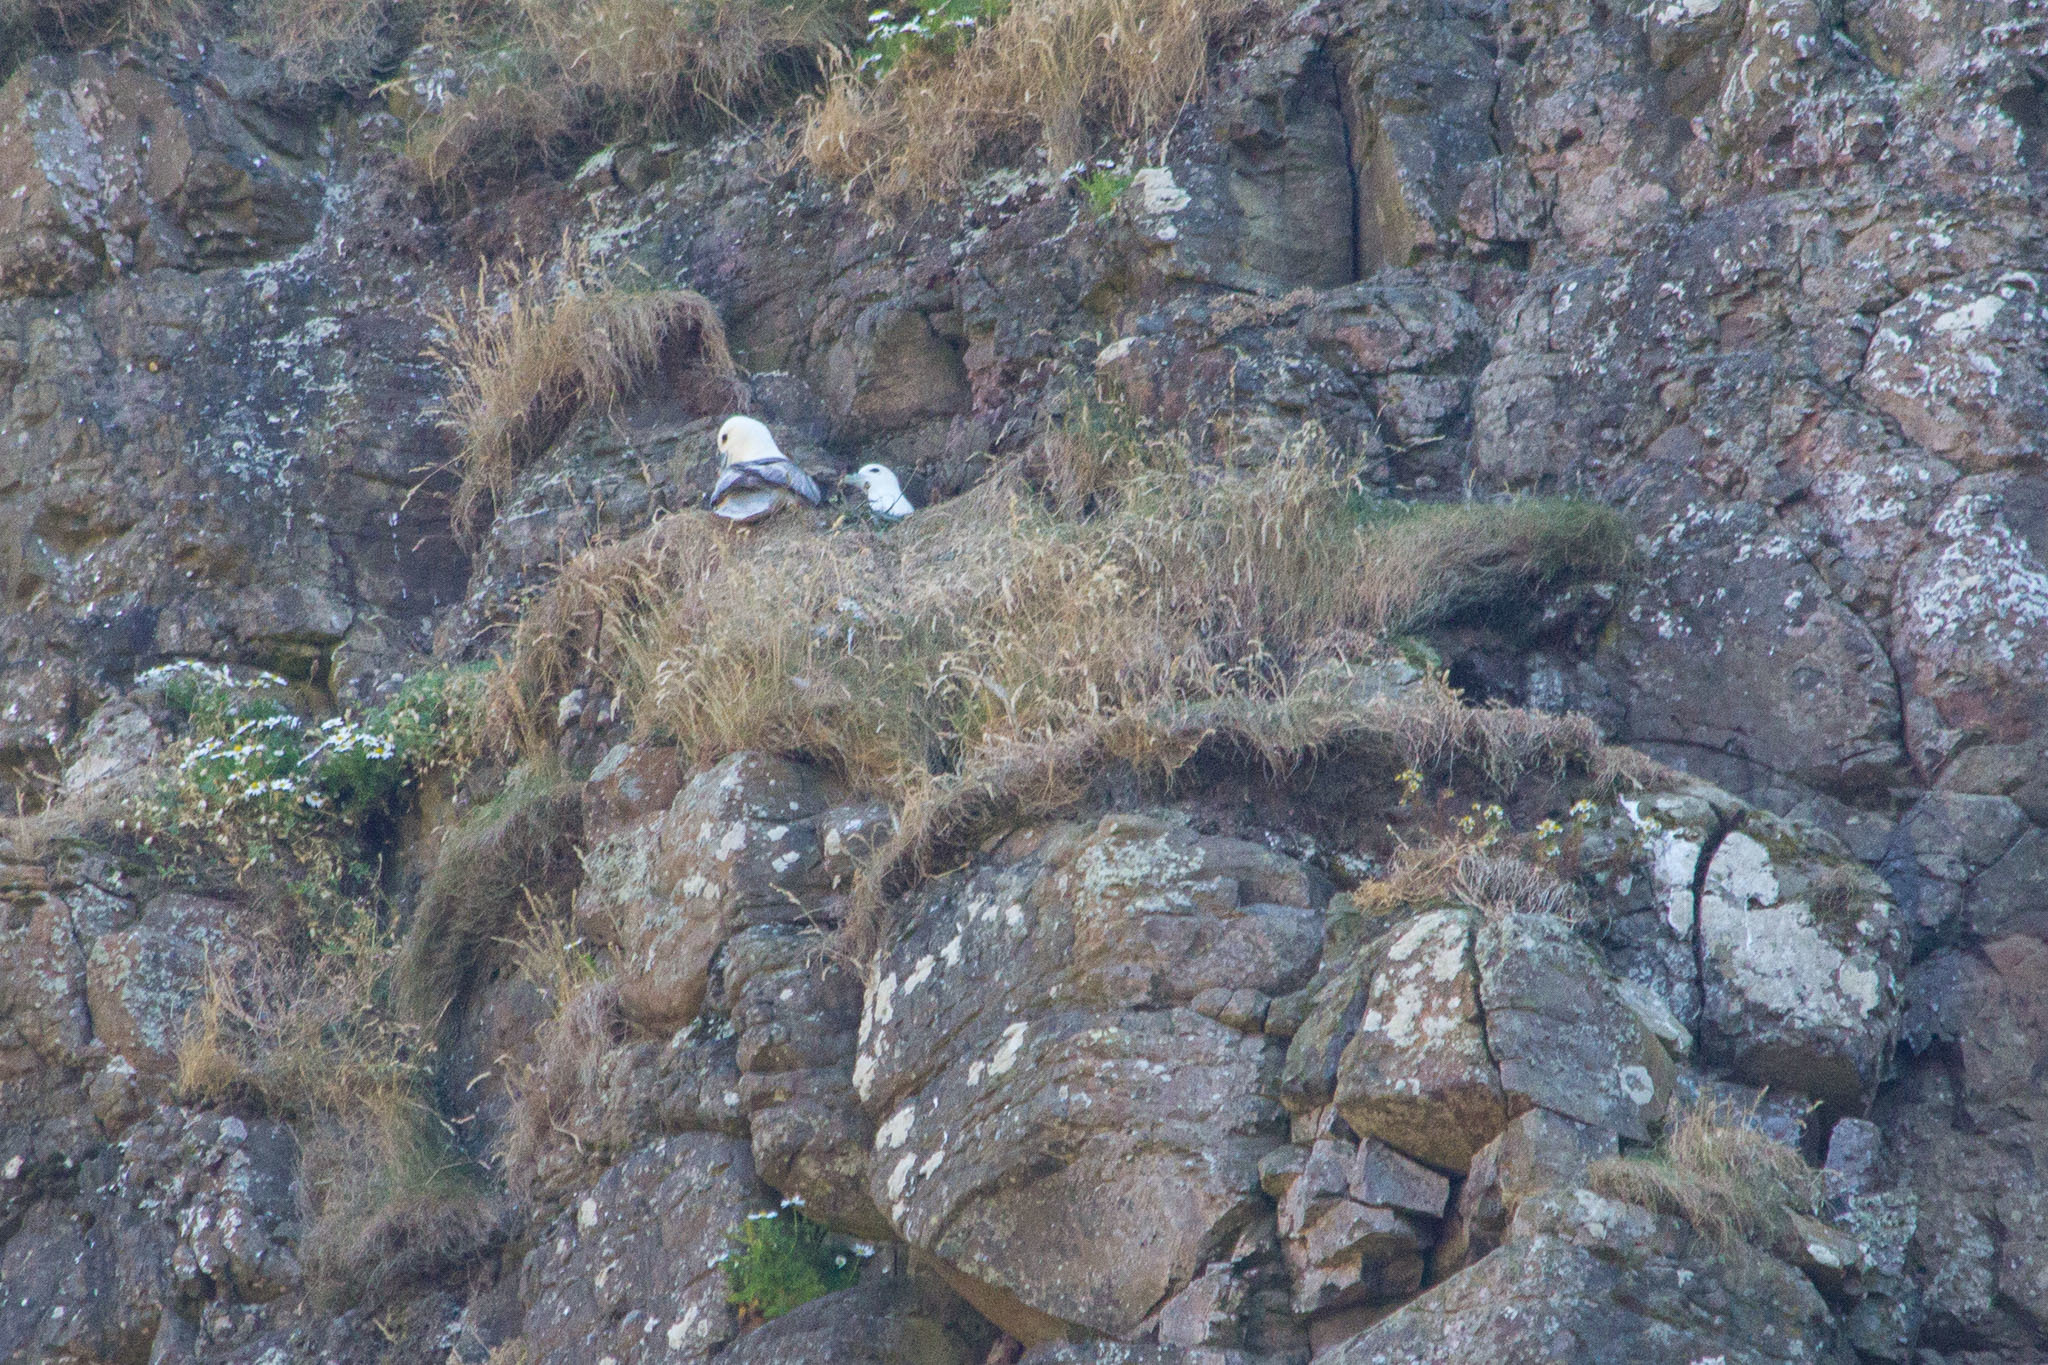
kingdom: Animalia
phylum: Chordata
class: Aves
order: Procellariiformes
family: Procellariidae
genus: Fulmarus
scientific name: Fulmarus glacialis
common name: Northern fulmar
